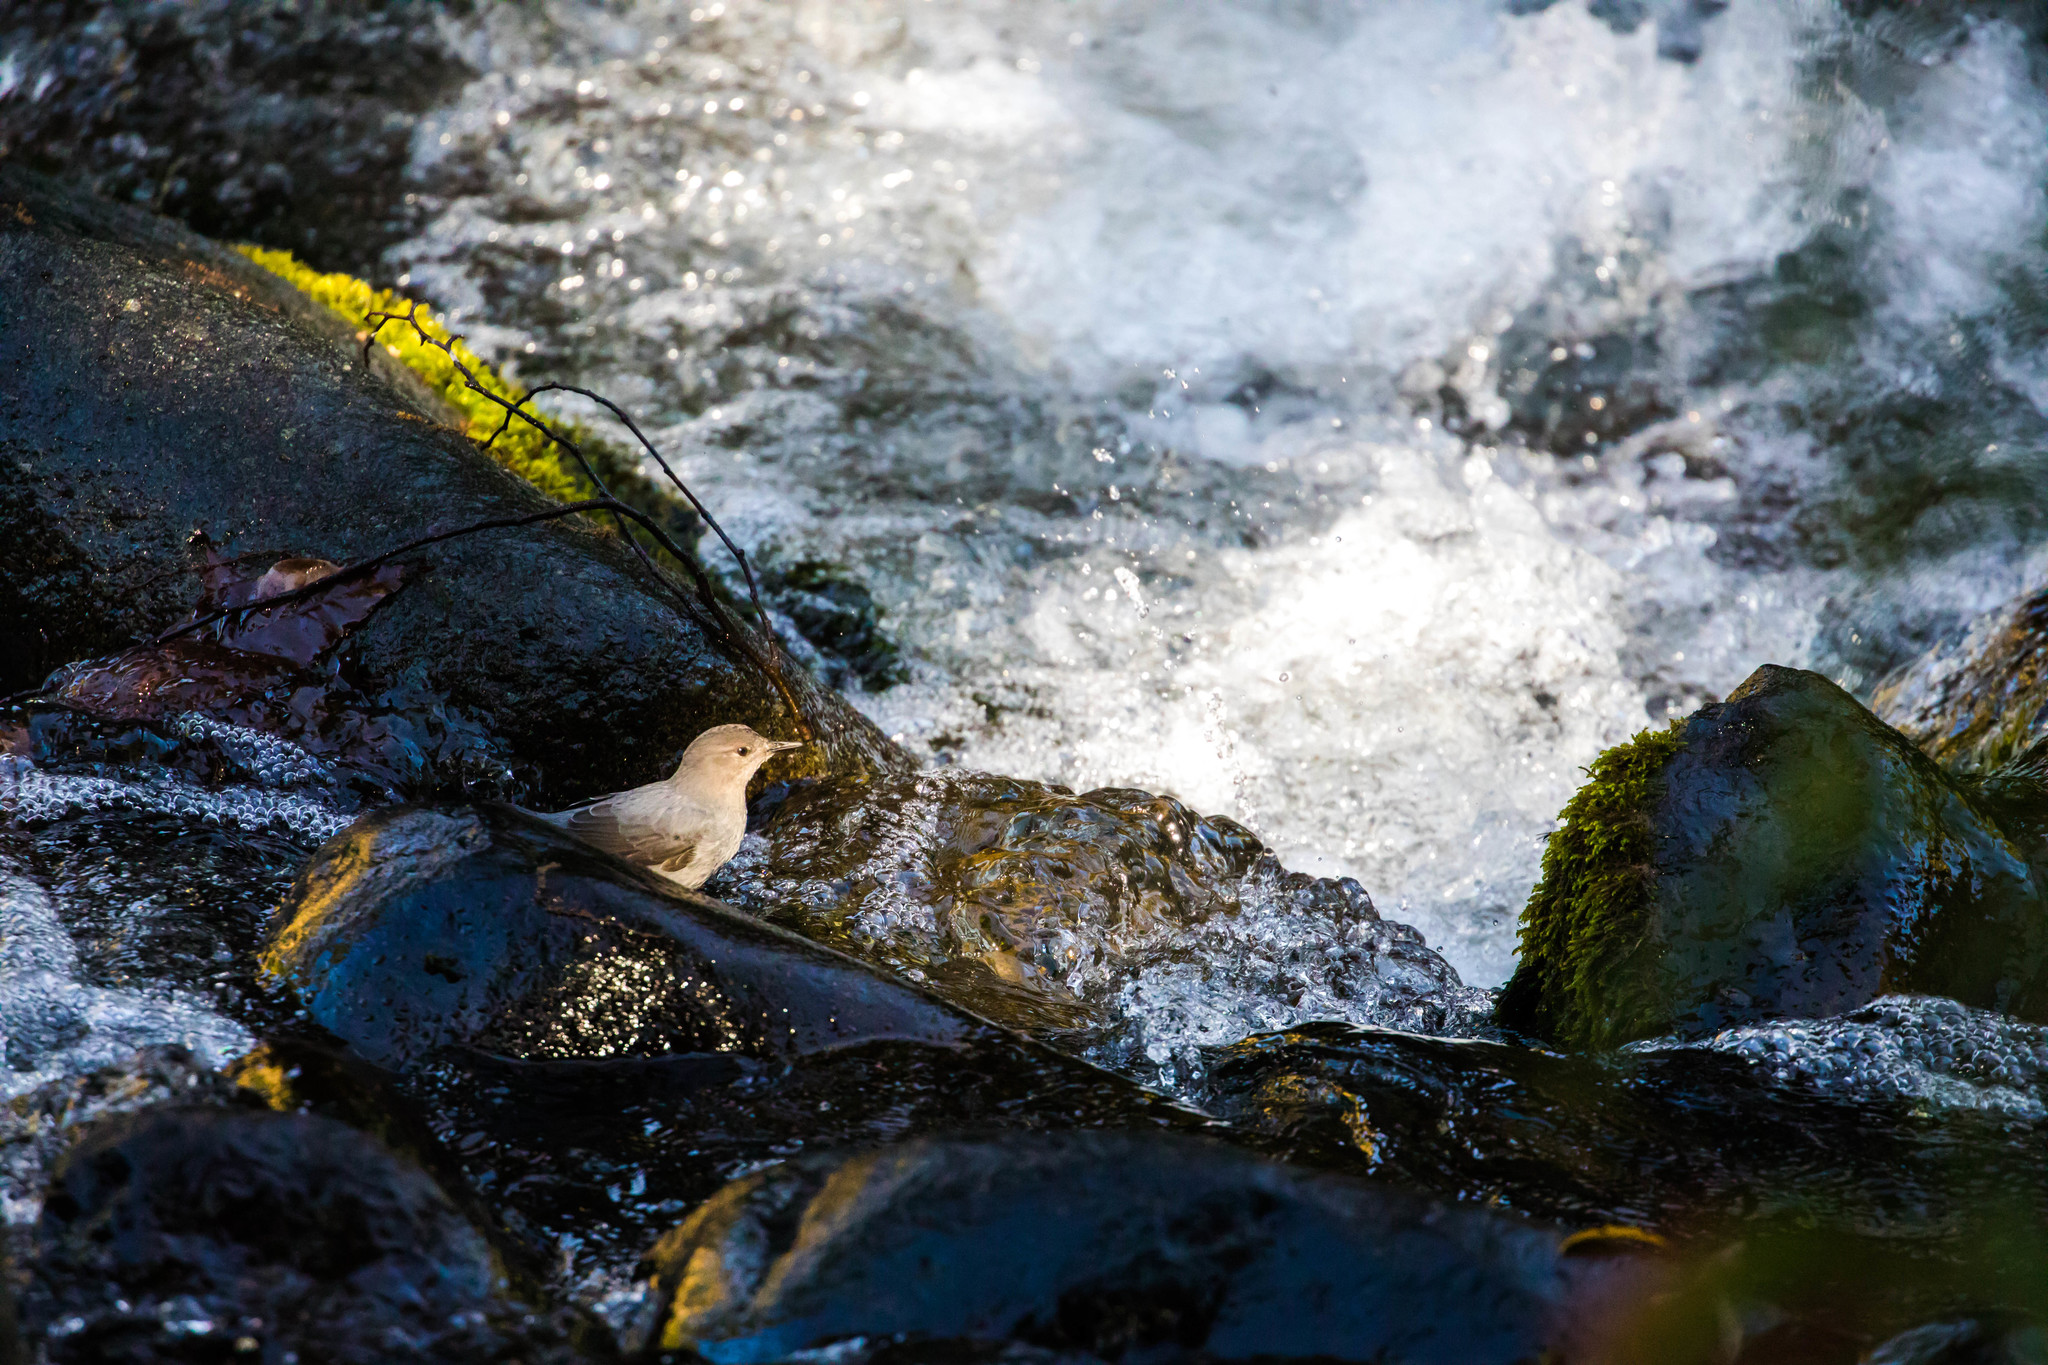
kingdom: Animalia
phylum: Chordata
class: Aves
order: Passeriformes
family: Cinclidae
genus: Cinclus
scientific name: Cinclus mexicanus
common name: American dipper
